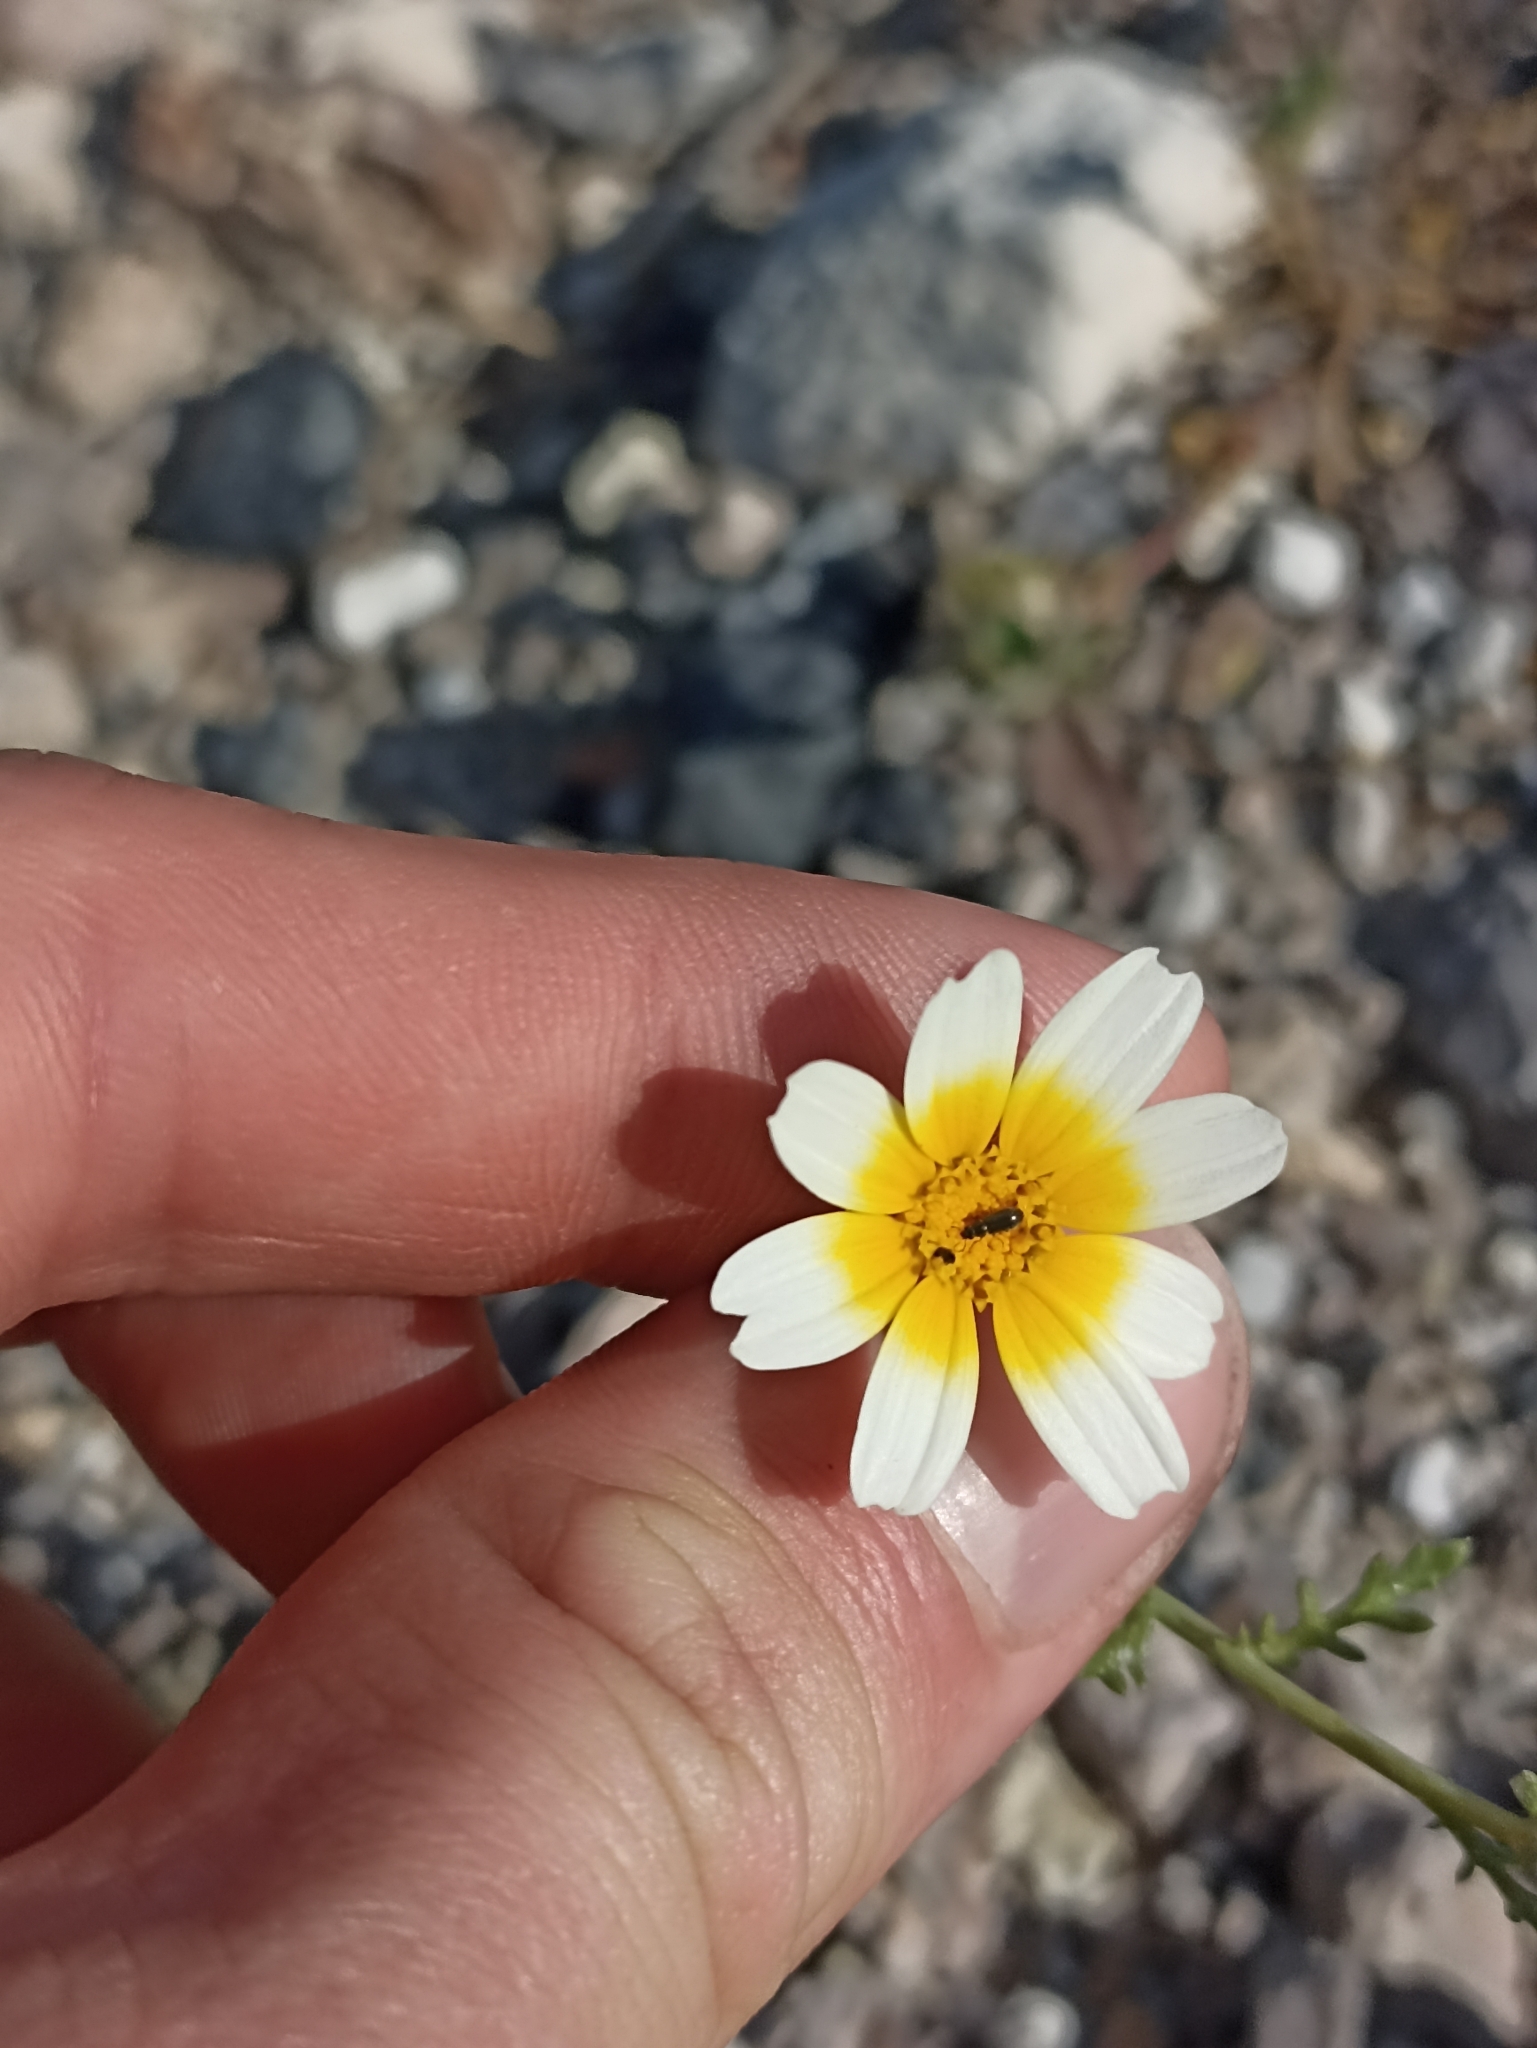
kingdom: Plantae
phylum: Tracheophyta
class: Magnoliopsida
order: Asterales
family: Asteraceae
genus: Glebionis
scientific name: Glebionis coronaria
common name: Crowndaisy
